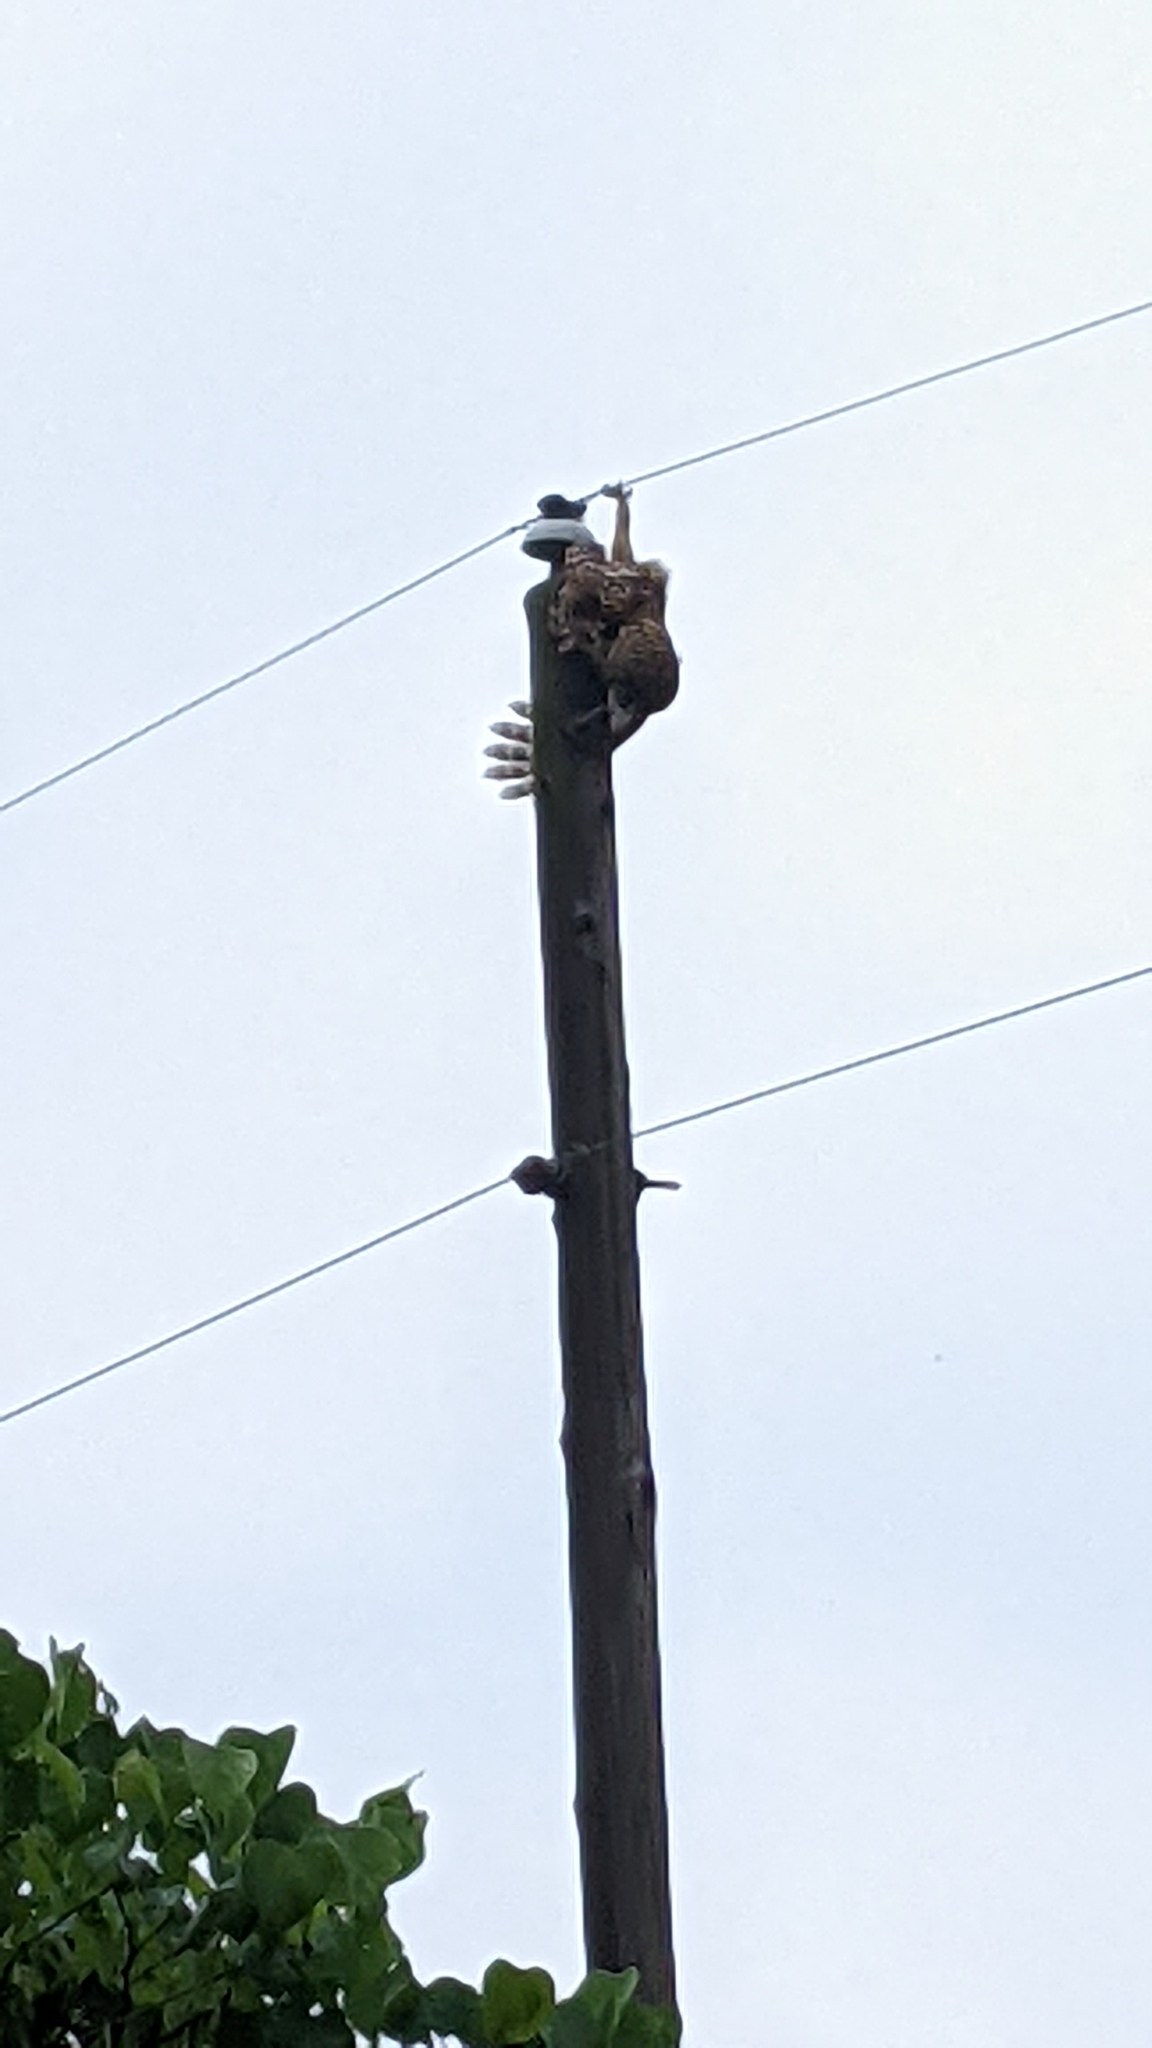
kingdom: Animalia
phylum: Chordata
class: Aves
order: Strigiformes
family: Strigidae
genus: Strix
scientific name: Strix varia
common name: Barred owl
